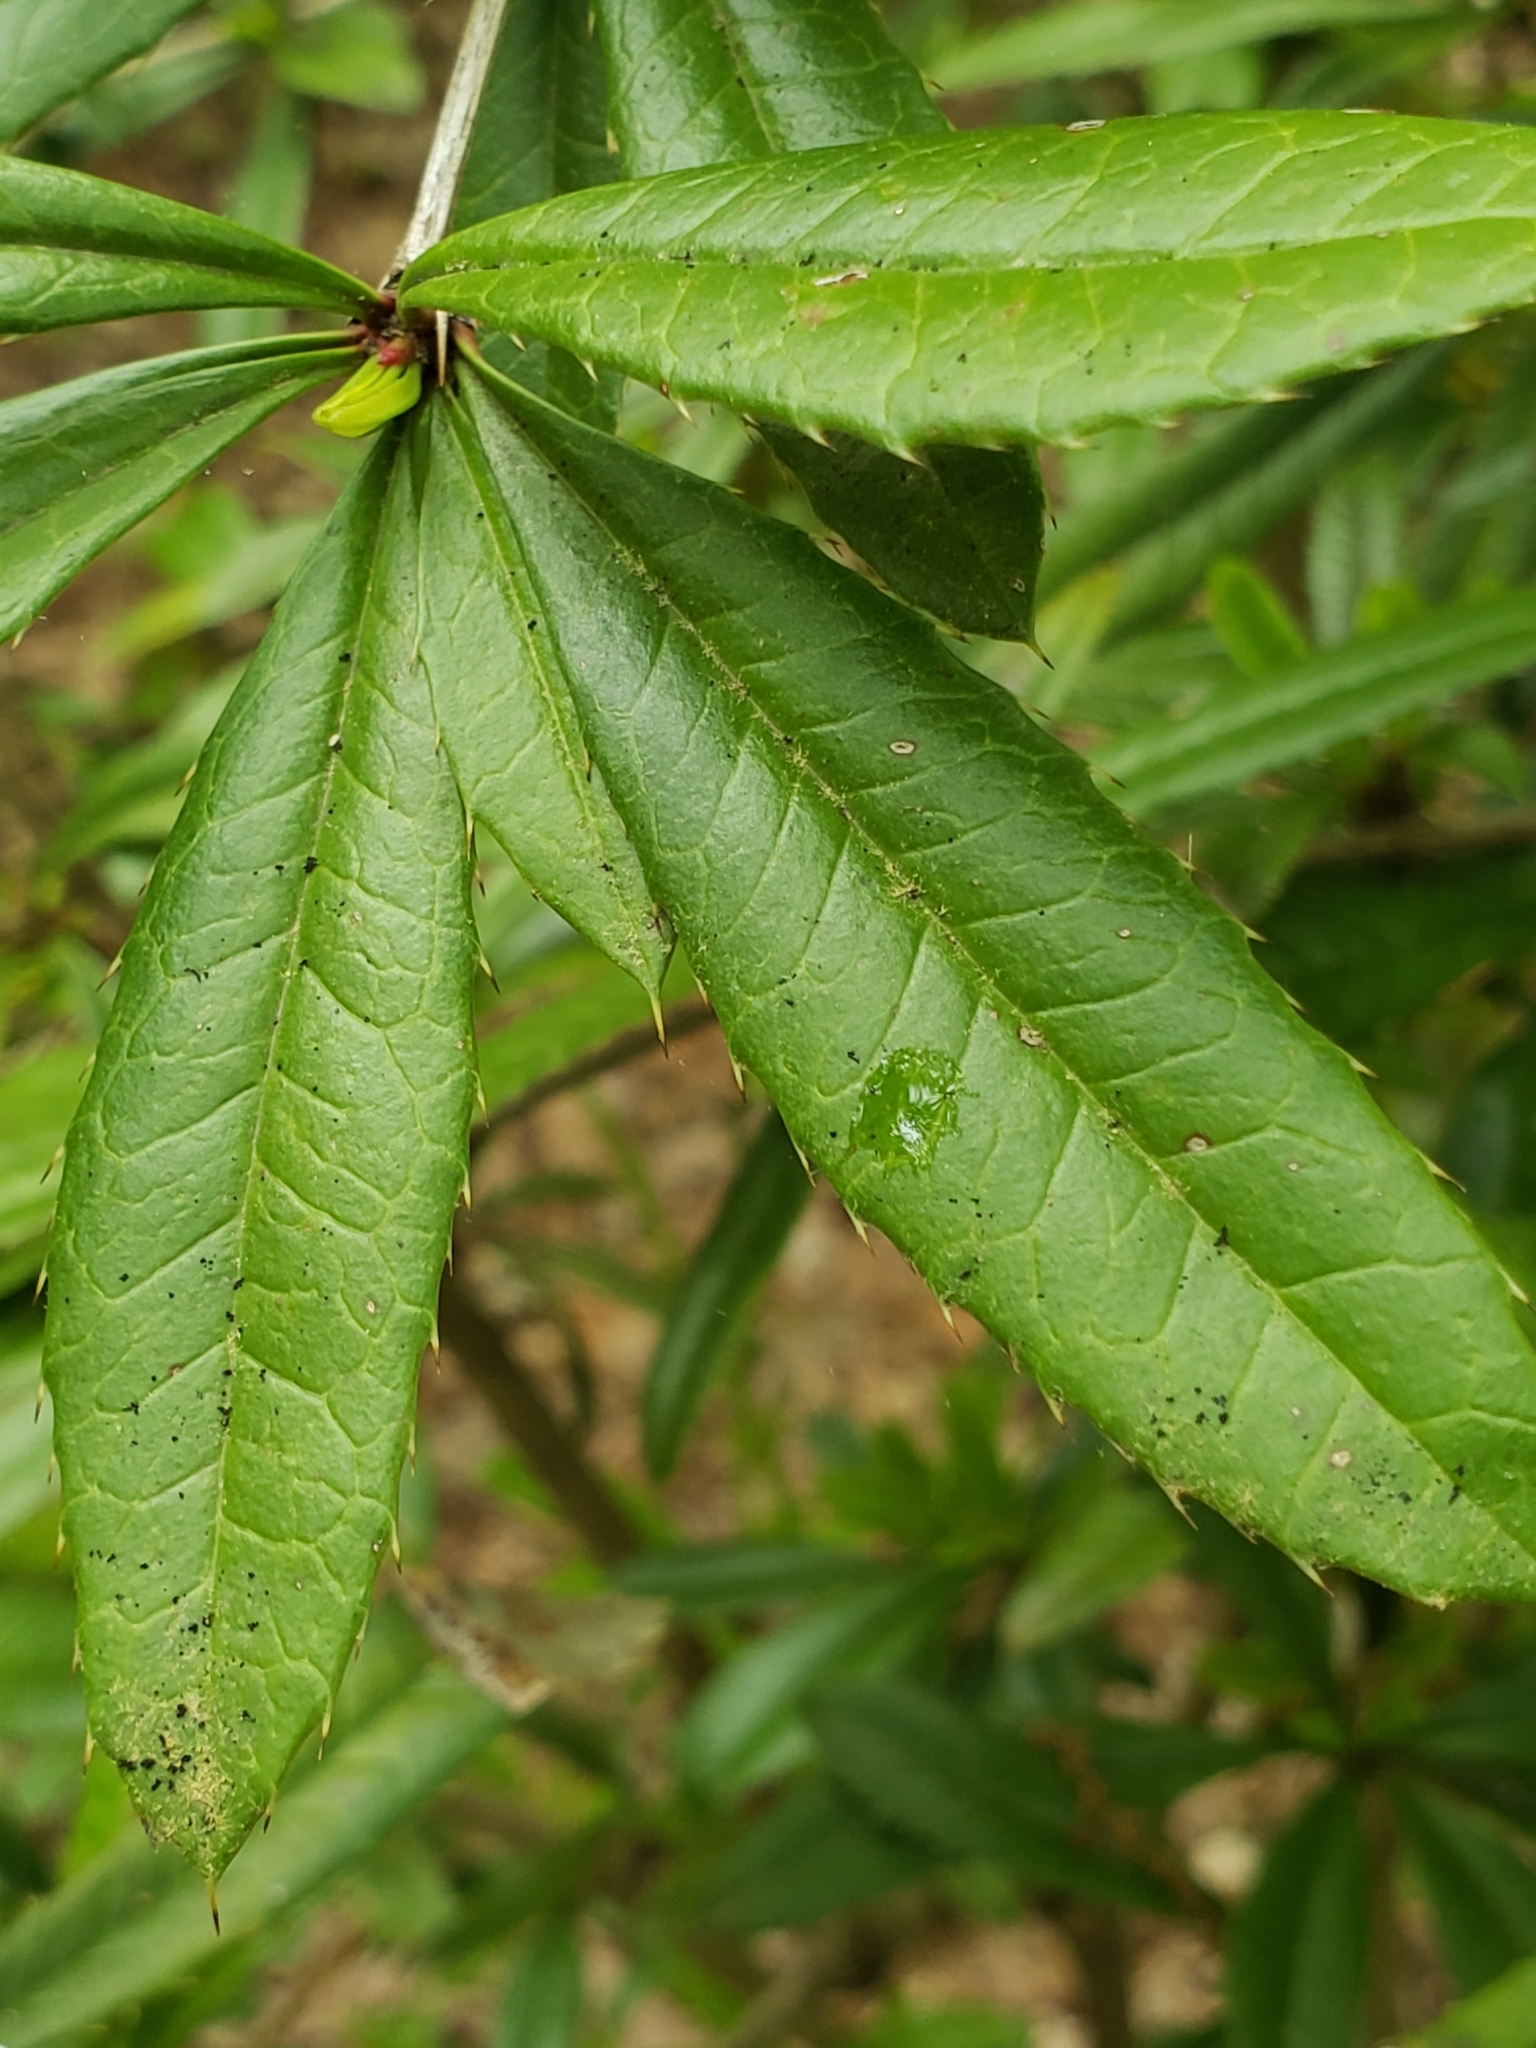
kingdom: Plantae
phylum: Tracheophyta
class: Magnoliopsida
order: Ranunculales
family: Berberidaceae
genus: Berberis
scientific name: Berberis julianae
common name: Wintergreen barberry
